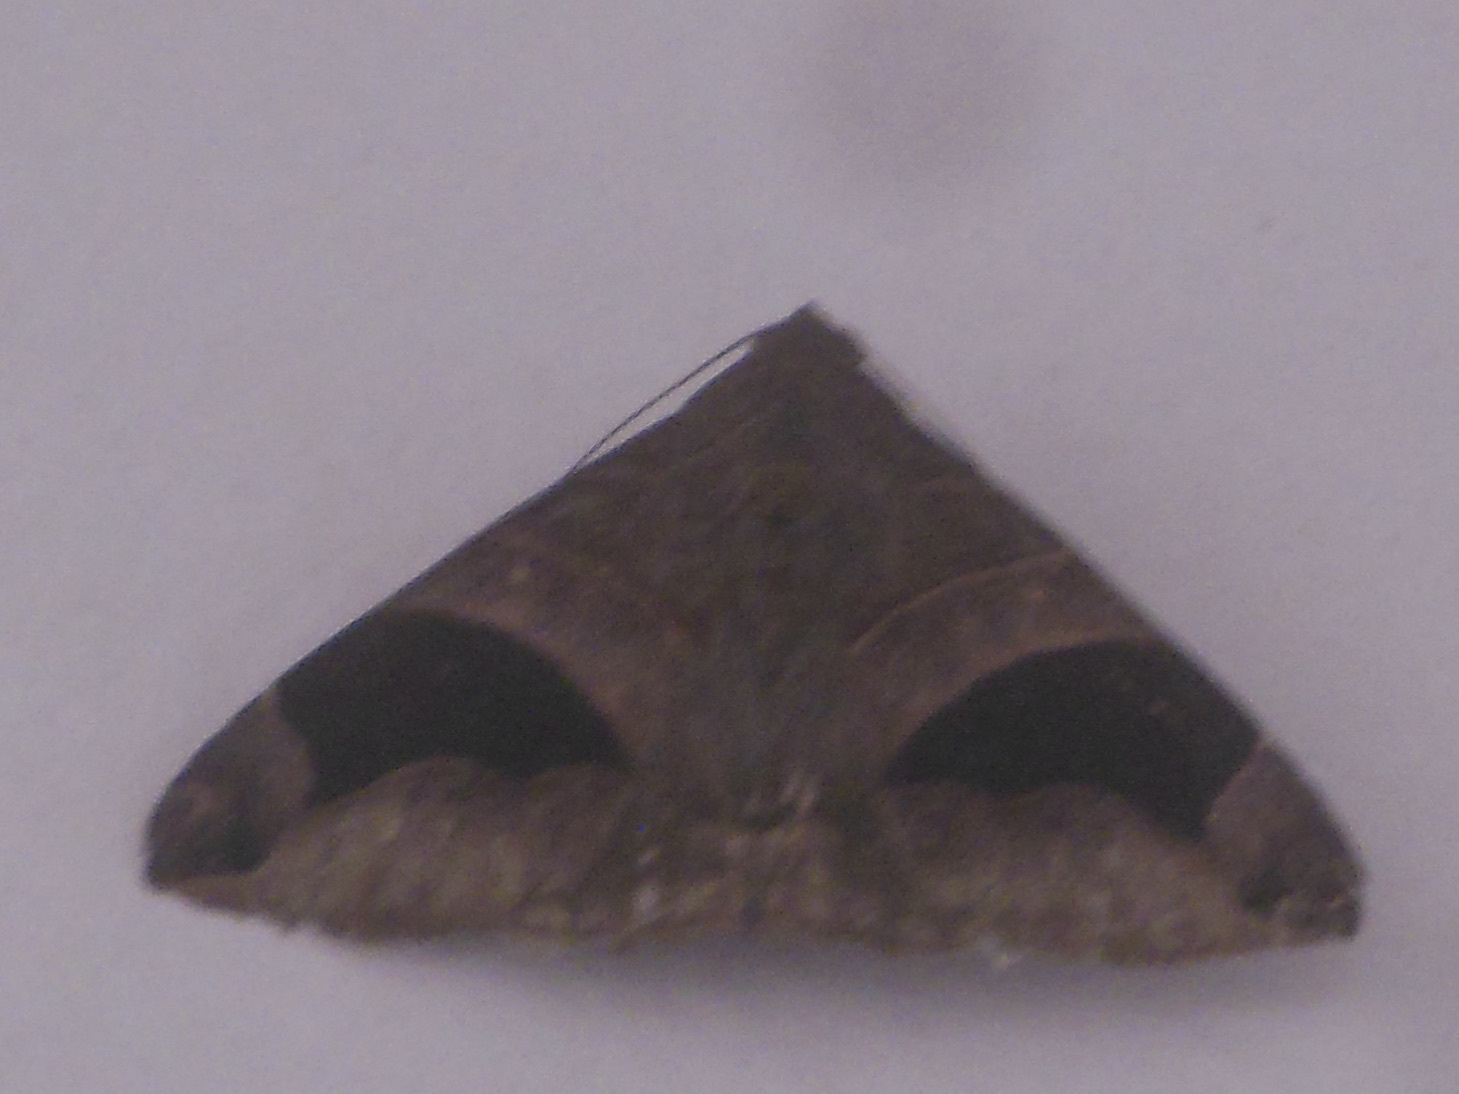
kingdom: Animalia
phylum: Arthropoda
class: Insecta
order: Lepidoptera
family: Erebidae
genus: Bastilla
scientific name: Bastilla joviana
